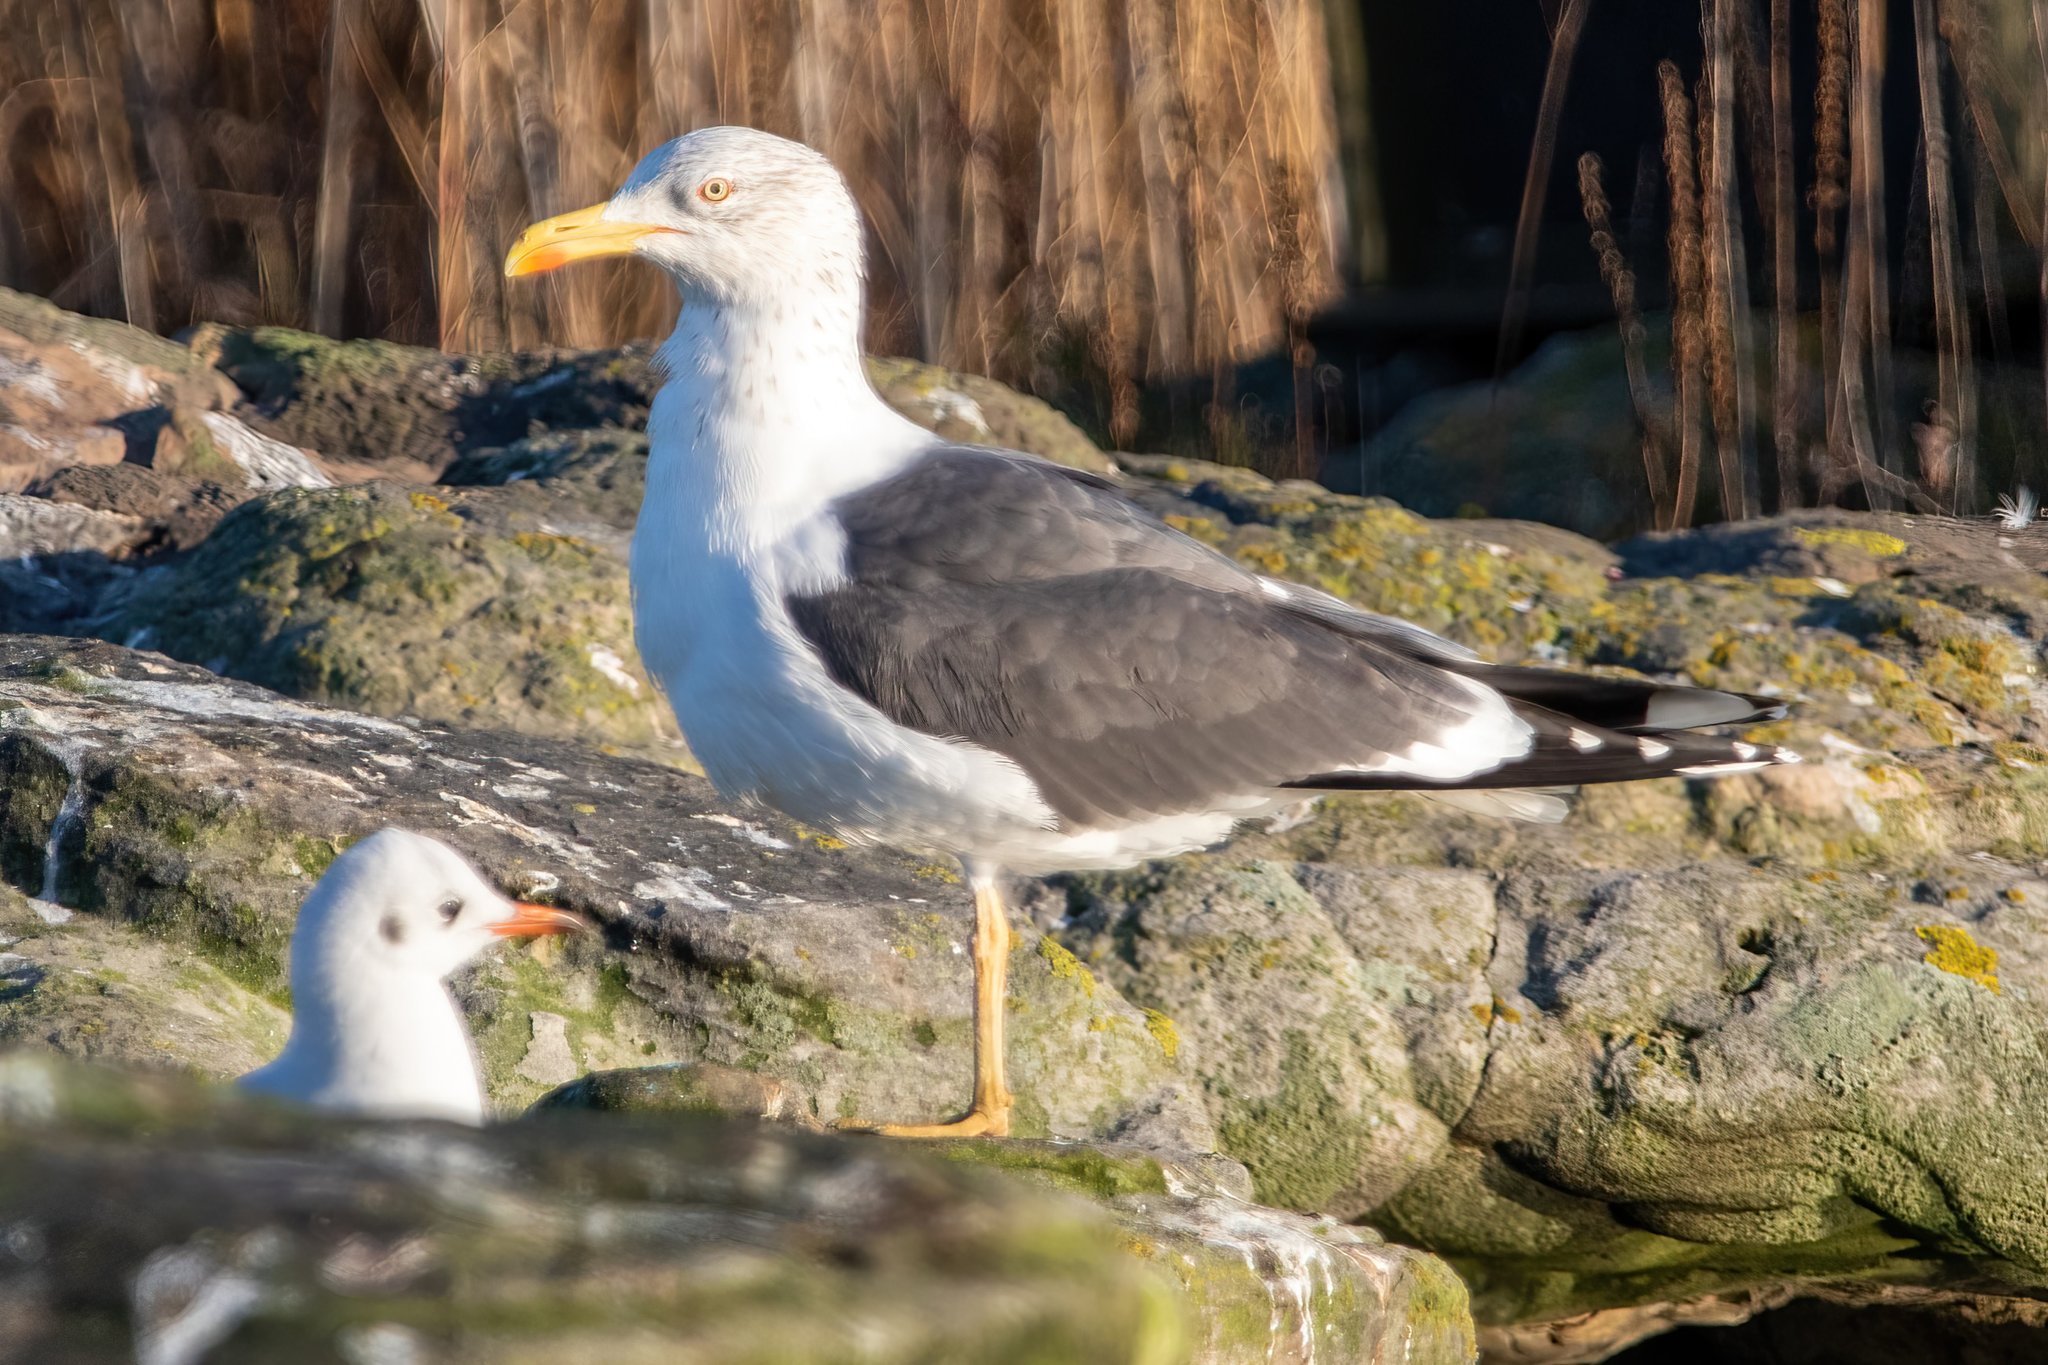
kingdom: Animalia
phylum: Chordata
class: Aves
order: Charadriiformes
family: Laridae
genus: Larus
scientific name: Larus fuscus
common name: Lesser black-backed gull
